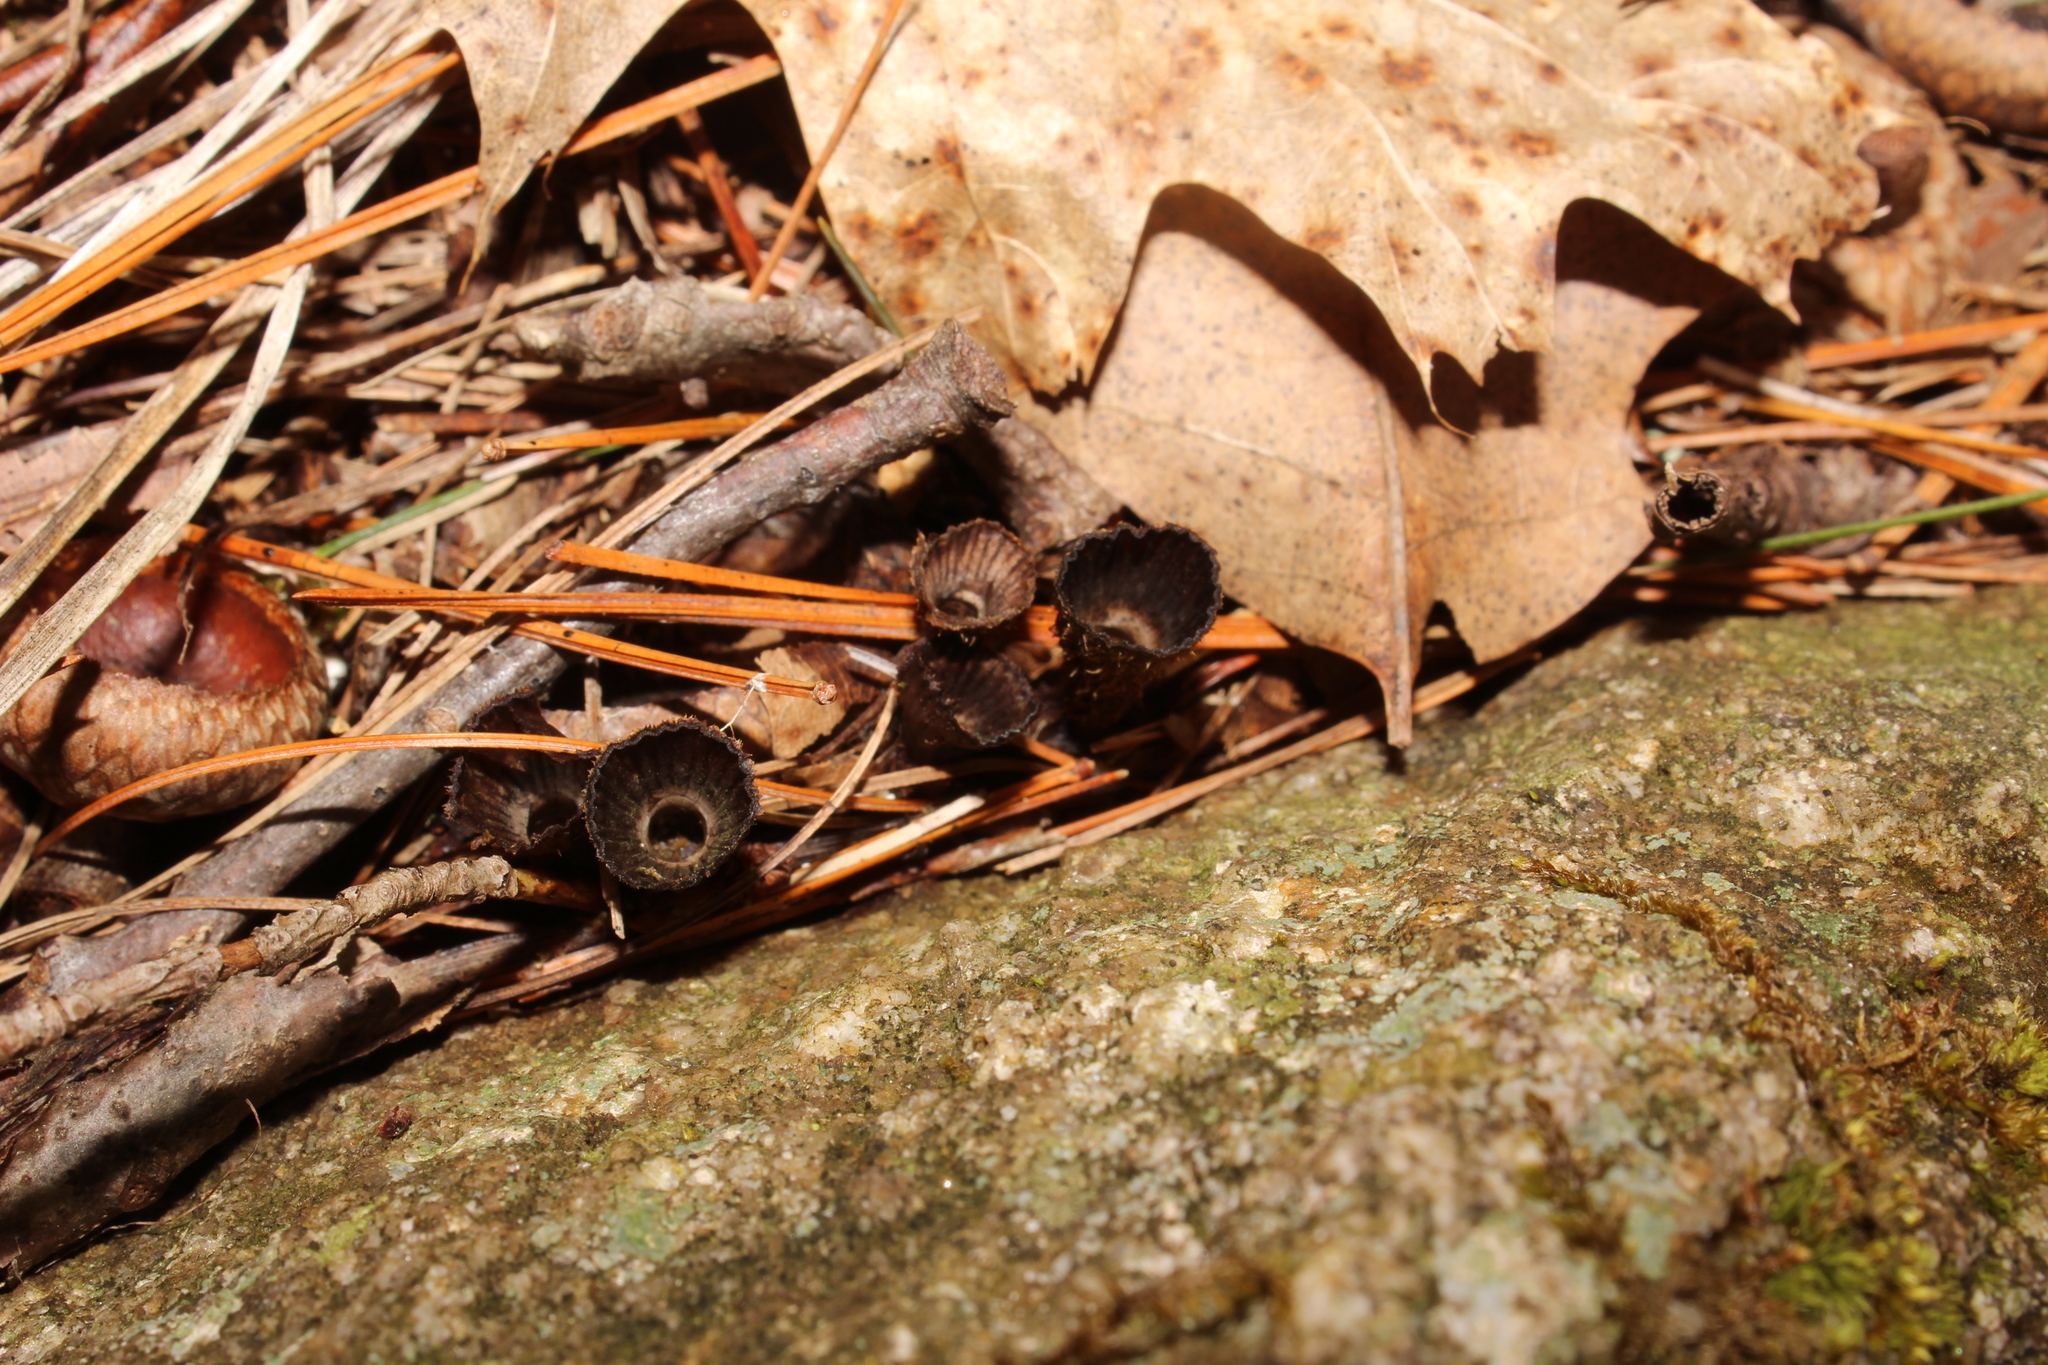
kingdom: Fungi
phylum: Basidiomycota
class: Agaricomycetes
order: Agaricales
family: Agaricaceae
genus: Cyathus
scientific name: Cyathus striatus
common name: Fluted bird's nest
